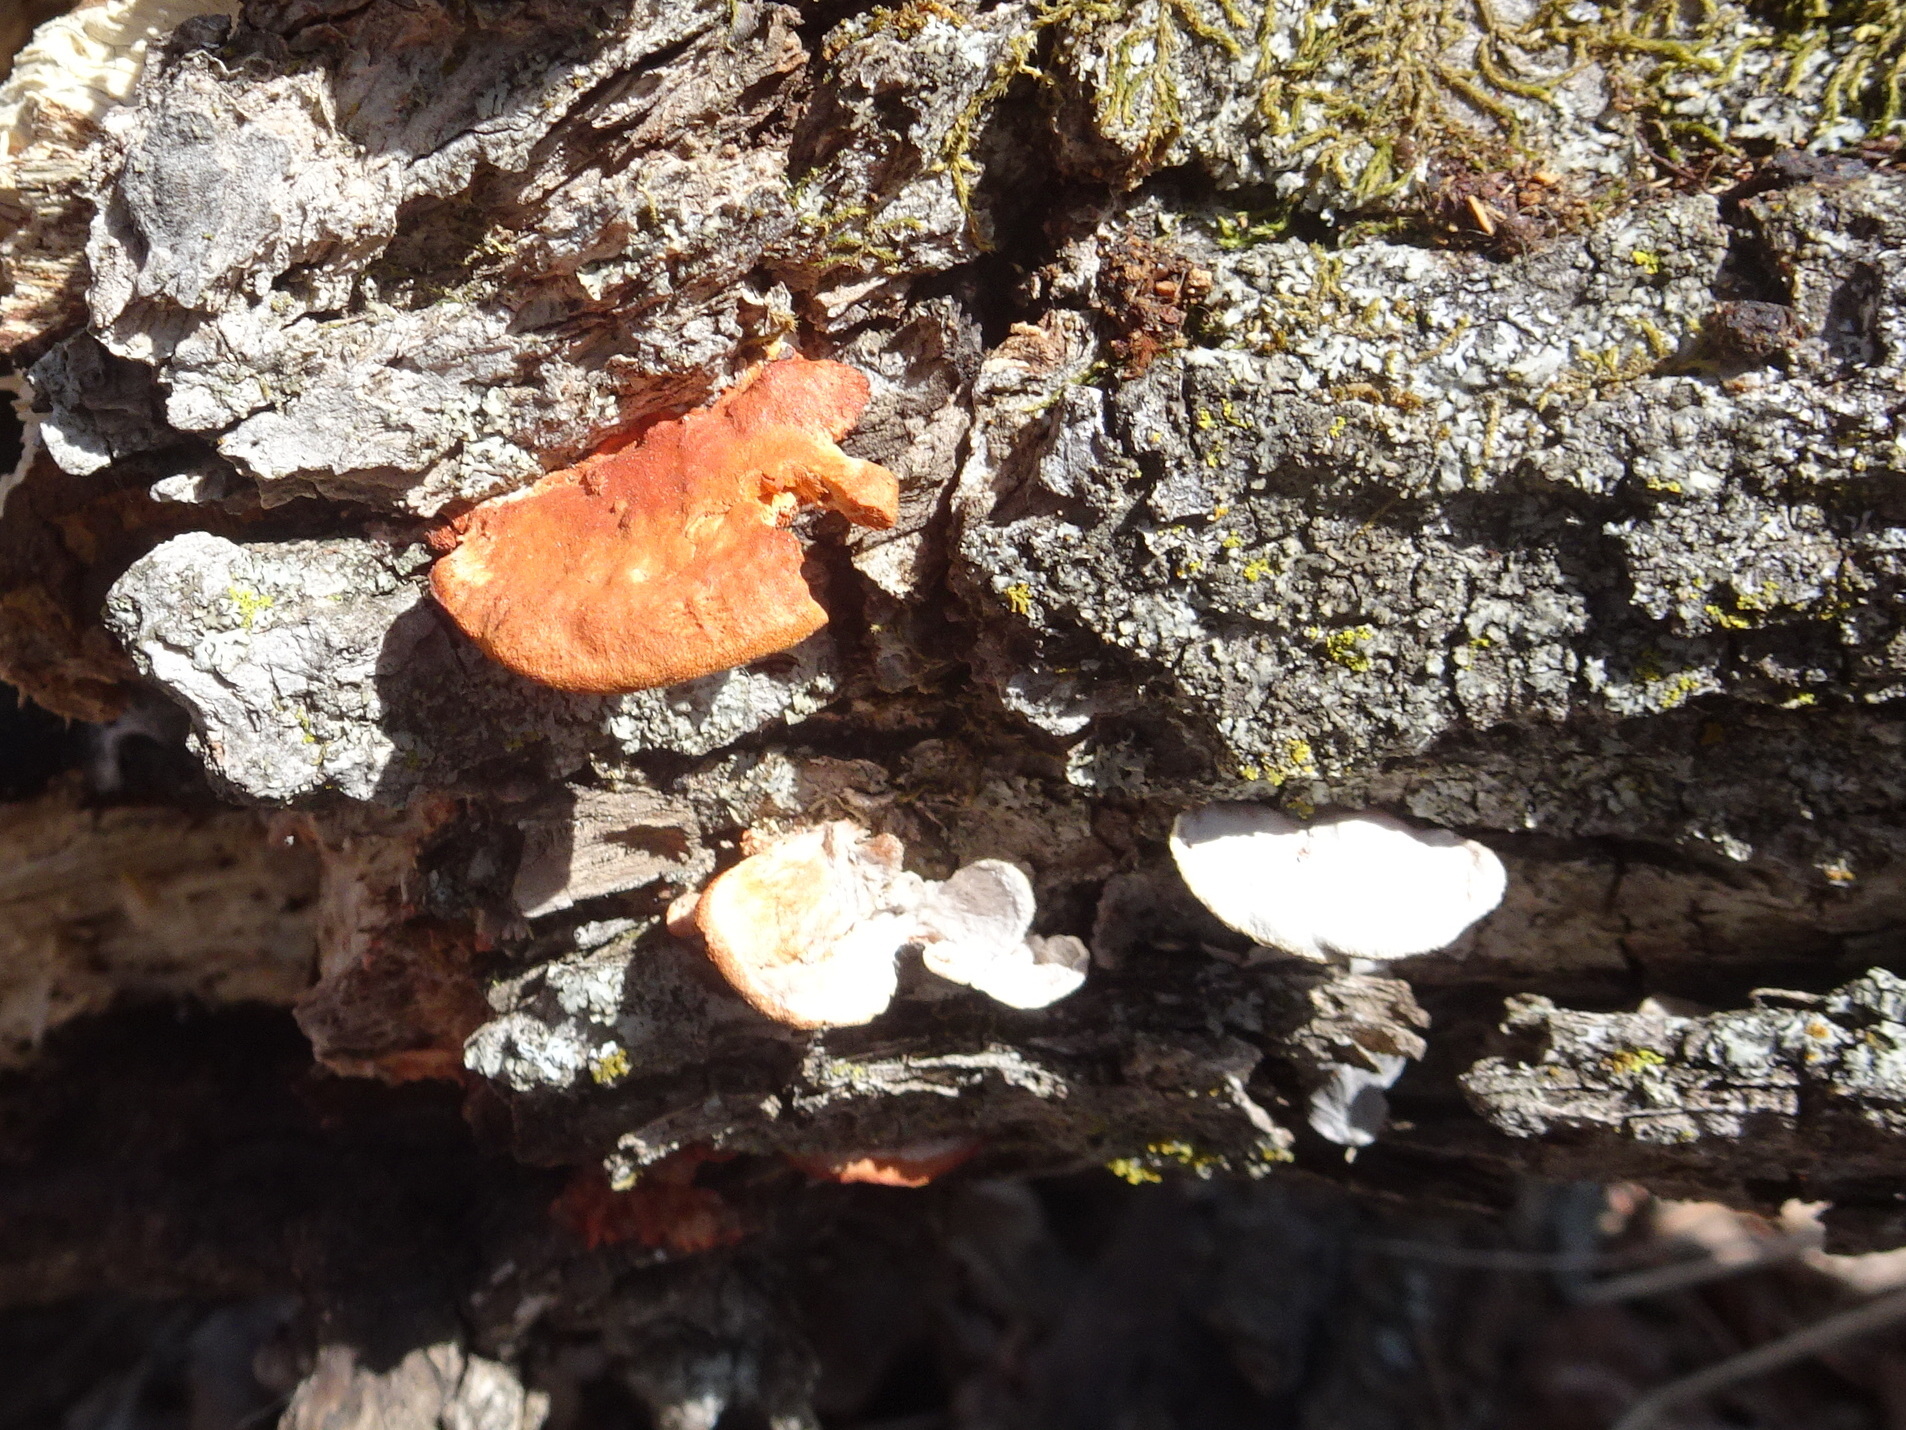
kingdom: Fungi
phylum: Basidiomycota
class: Agaricomycetes
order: Polyporales
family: Polyporaceae
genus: Trametes
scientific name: Trametes cinnabarina
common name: Northern cinnabar polypore
